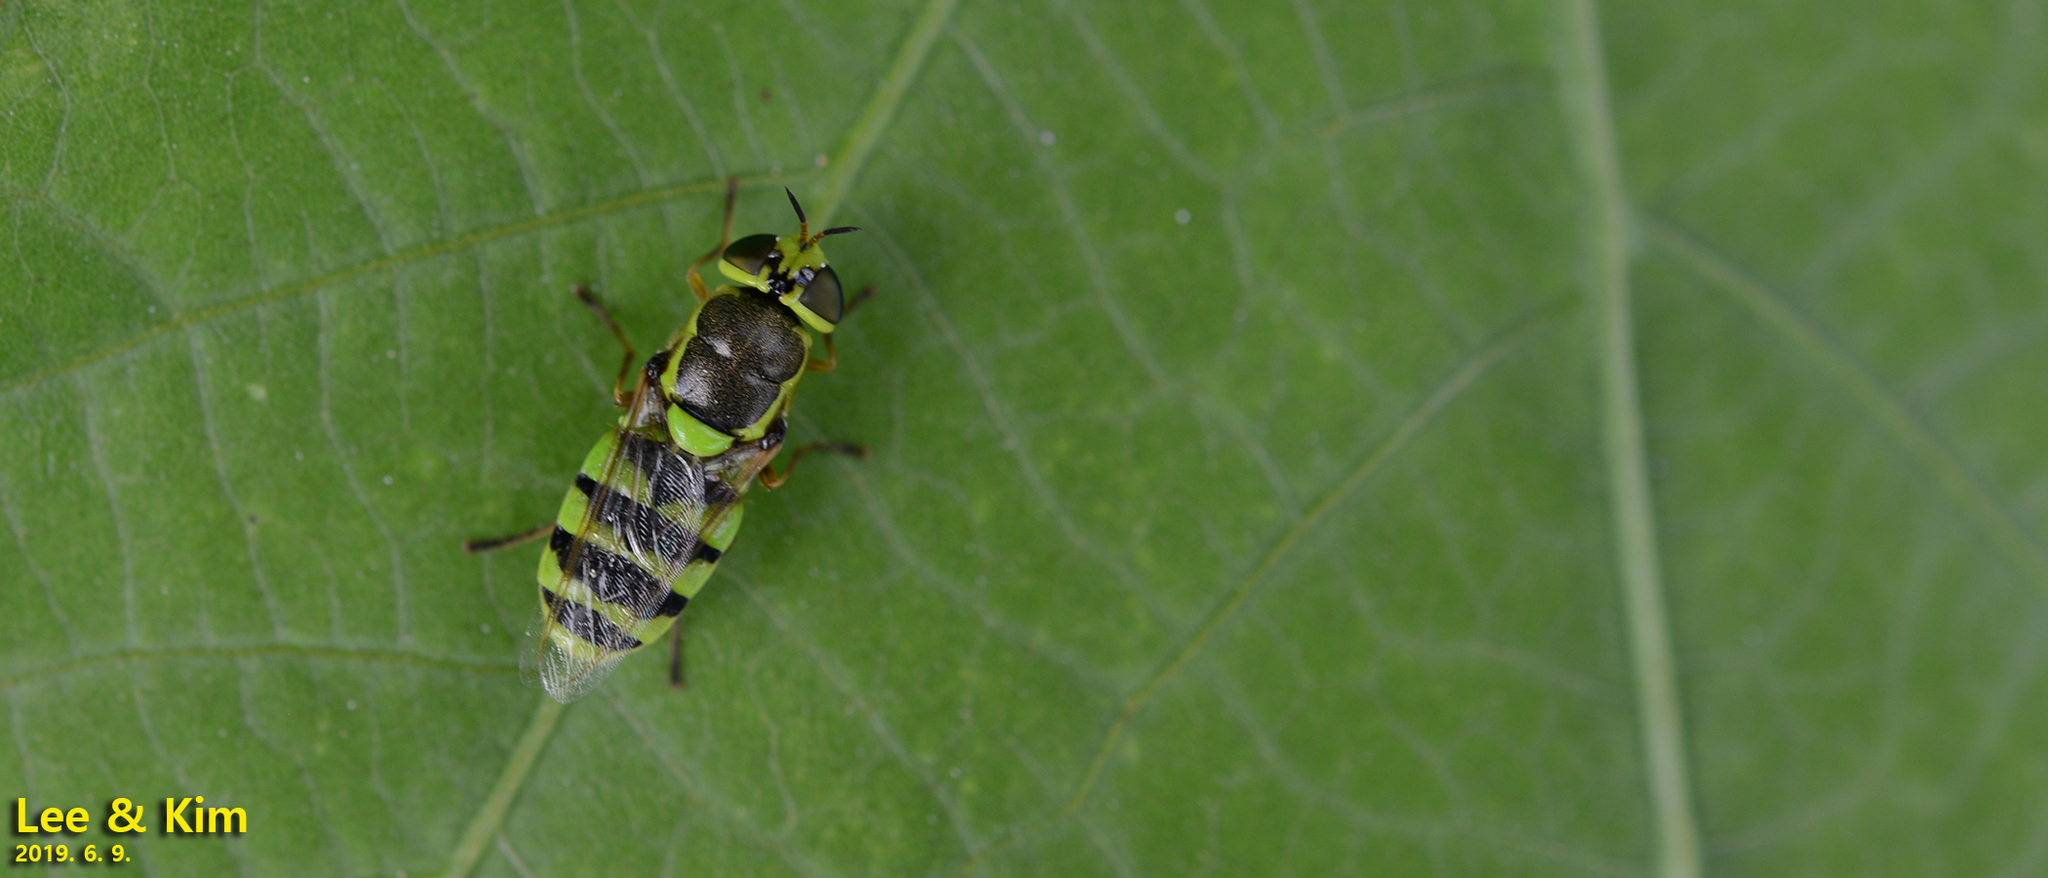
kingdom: Animalia
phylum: Arthropoda
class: Insecta
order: Diptera
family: Stratiomyidae
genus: Odontomyia
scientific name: Odontomyia garatas
